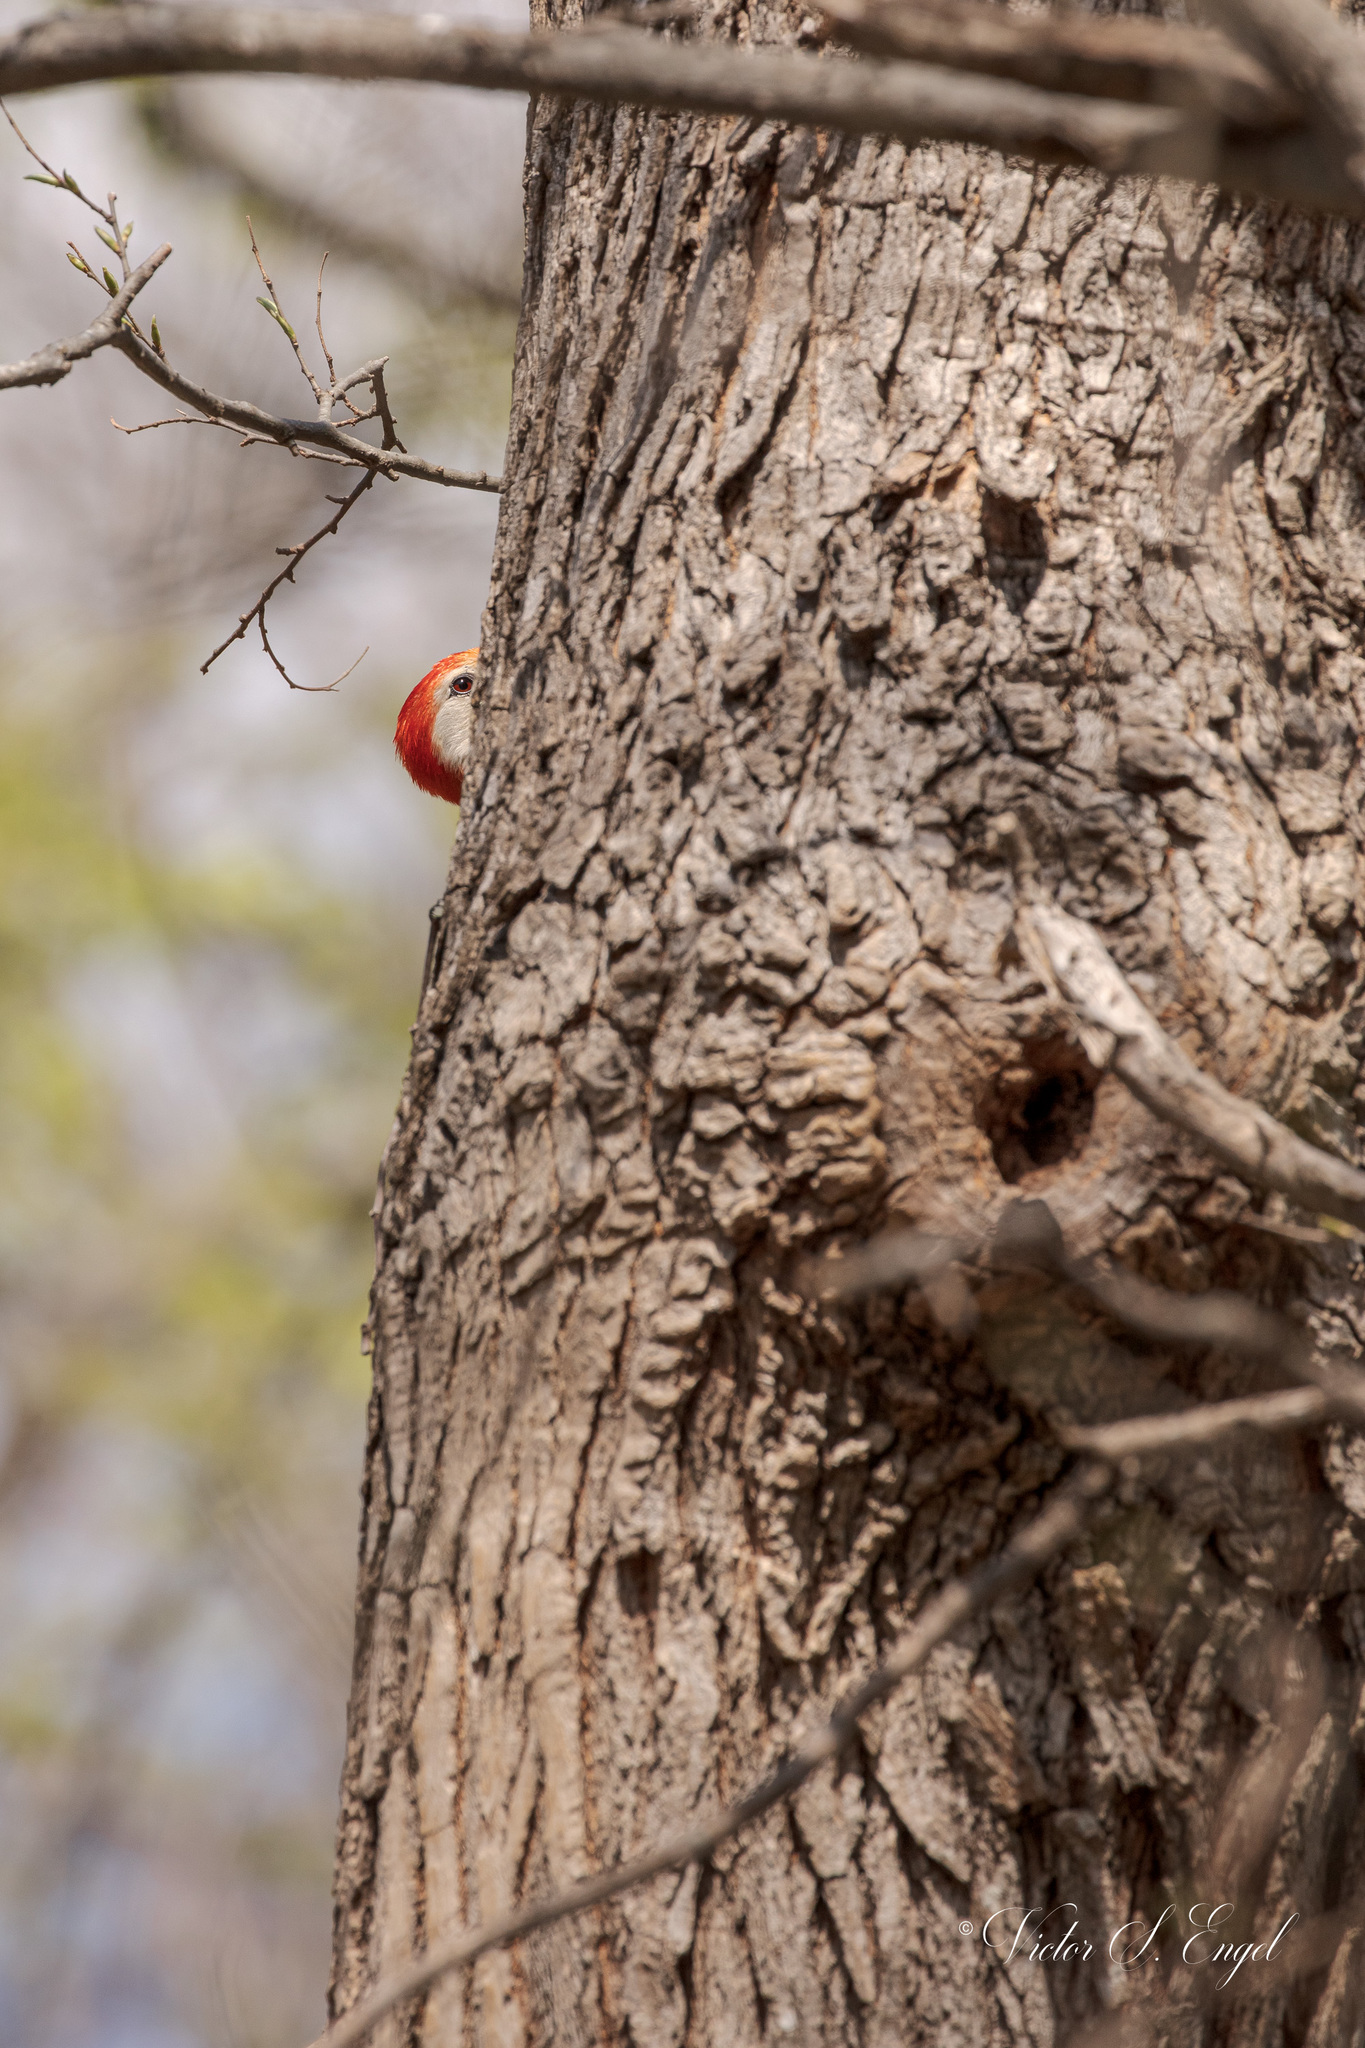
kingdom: Animalia
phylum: Chordata
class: Aves
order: Piciformes
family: Picidae
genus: Melanerpes
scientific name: Melanerpes carolinus
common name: Red-bellied woodpecker
